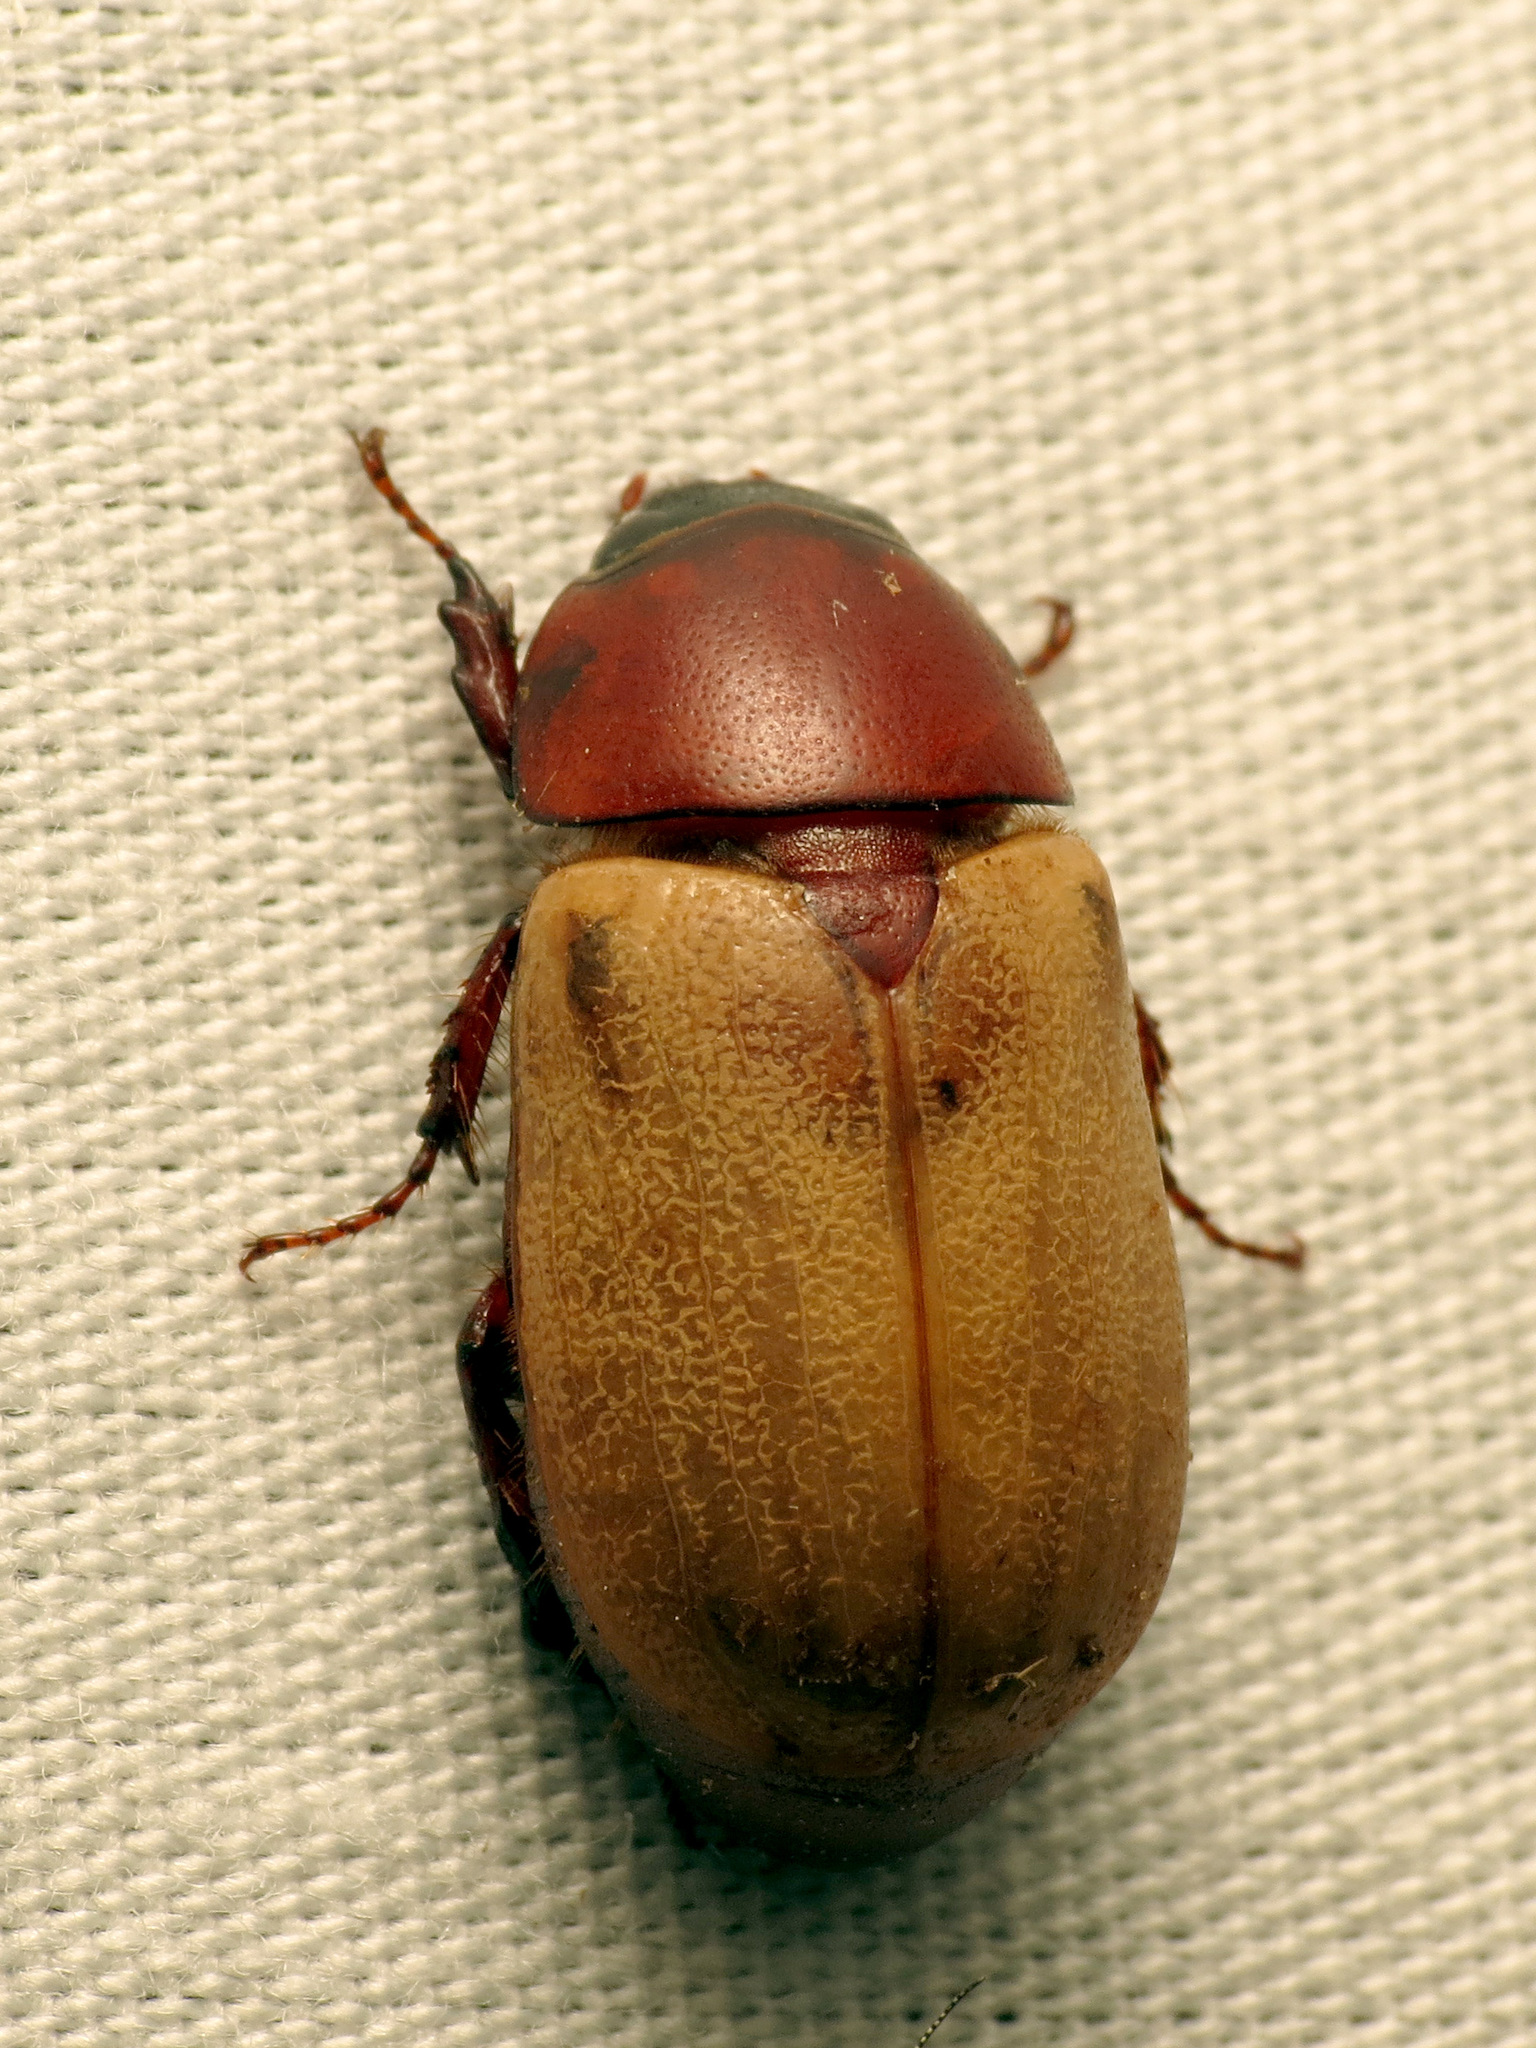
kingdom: Animalia
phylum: Arthropoda
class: Insecta
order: Coleoptera
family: Scarabaeidae
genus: Cyclocephala
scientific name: Cyclocephala melanocephala
